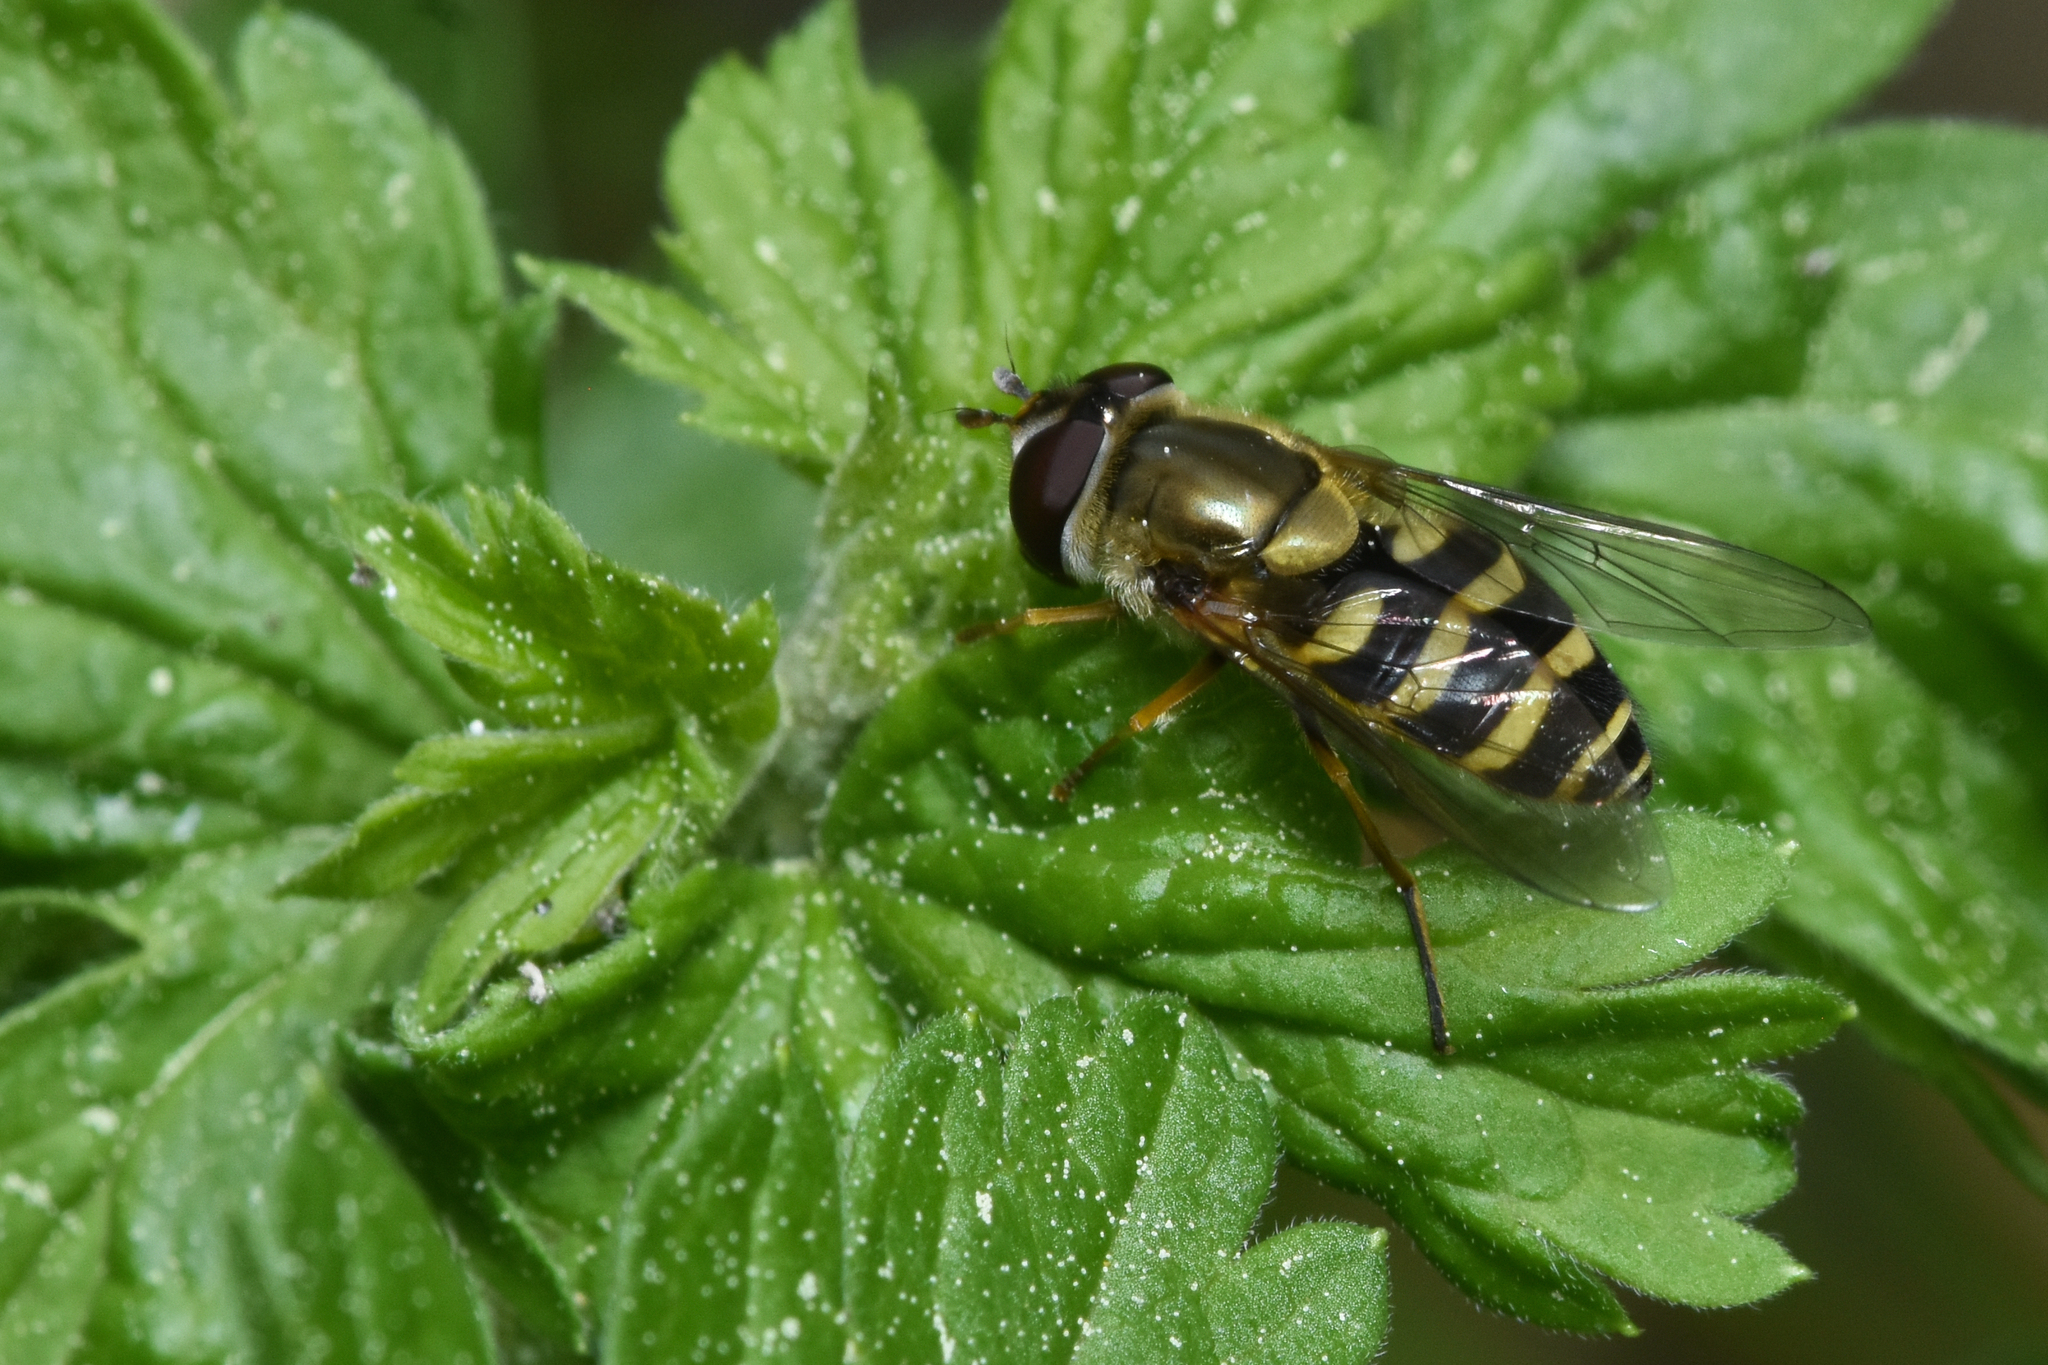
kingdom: Animalia
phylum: Arthropoda
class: Insecta
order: Diptera
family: Syrphidae
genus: Syrphus
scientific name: Syrphus
